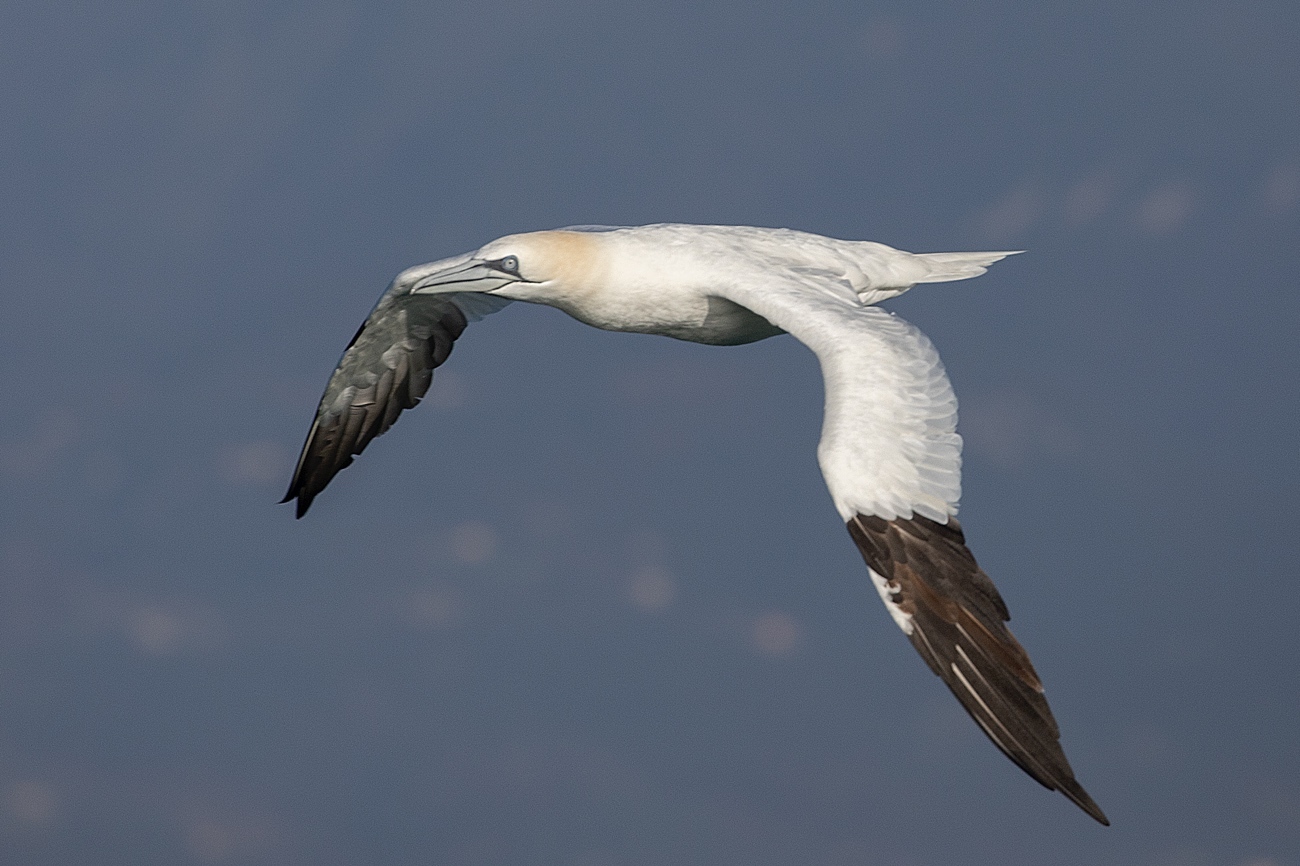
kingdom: Animalia
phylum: Chordata
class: Aves
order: Suliformes
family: Sulidae
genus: Morus
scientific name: Morus bassanus
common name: Northern gannet
